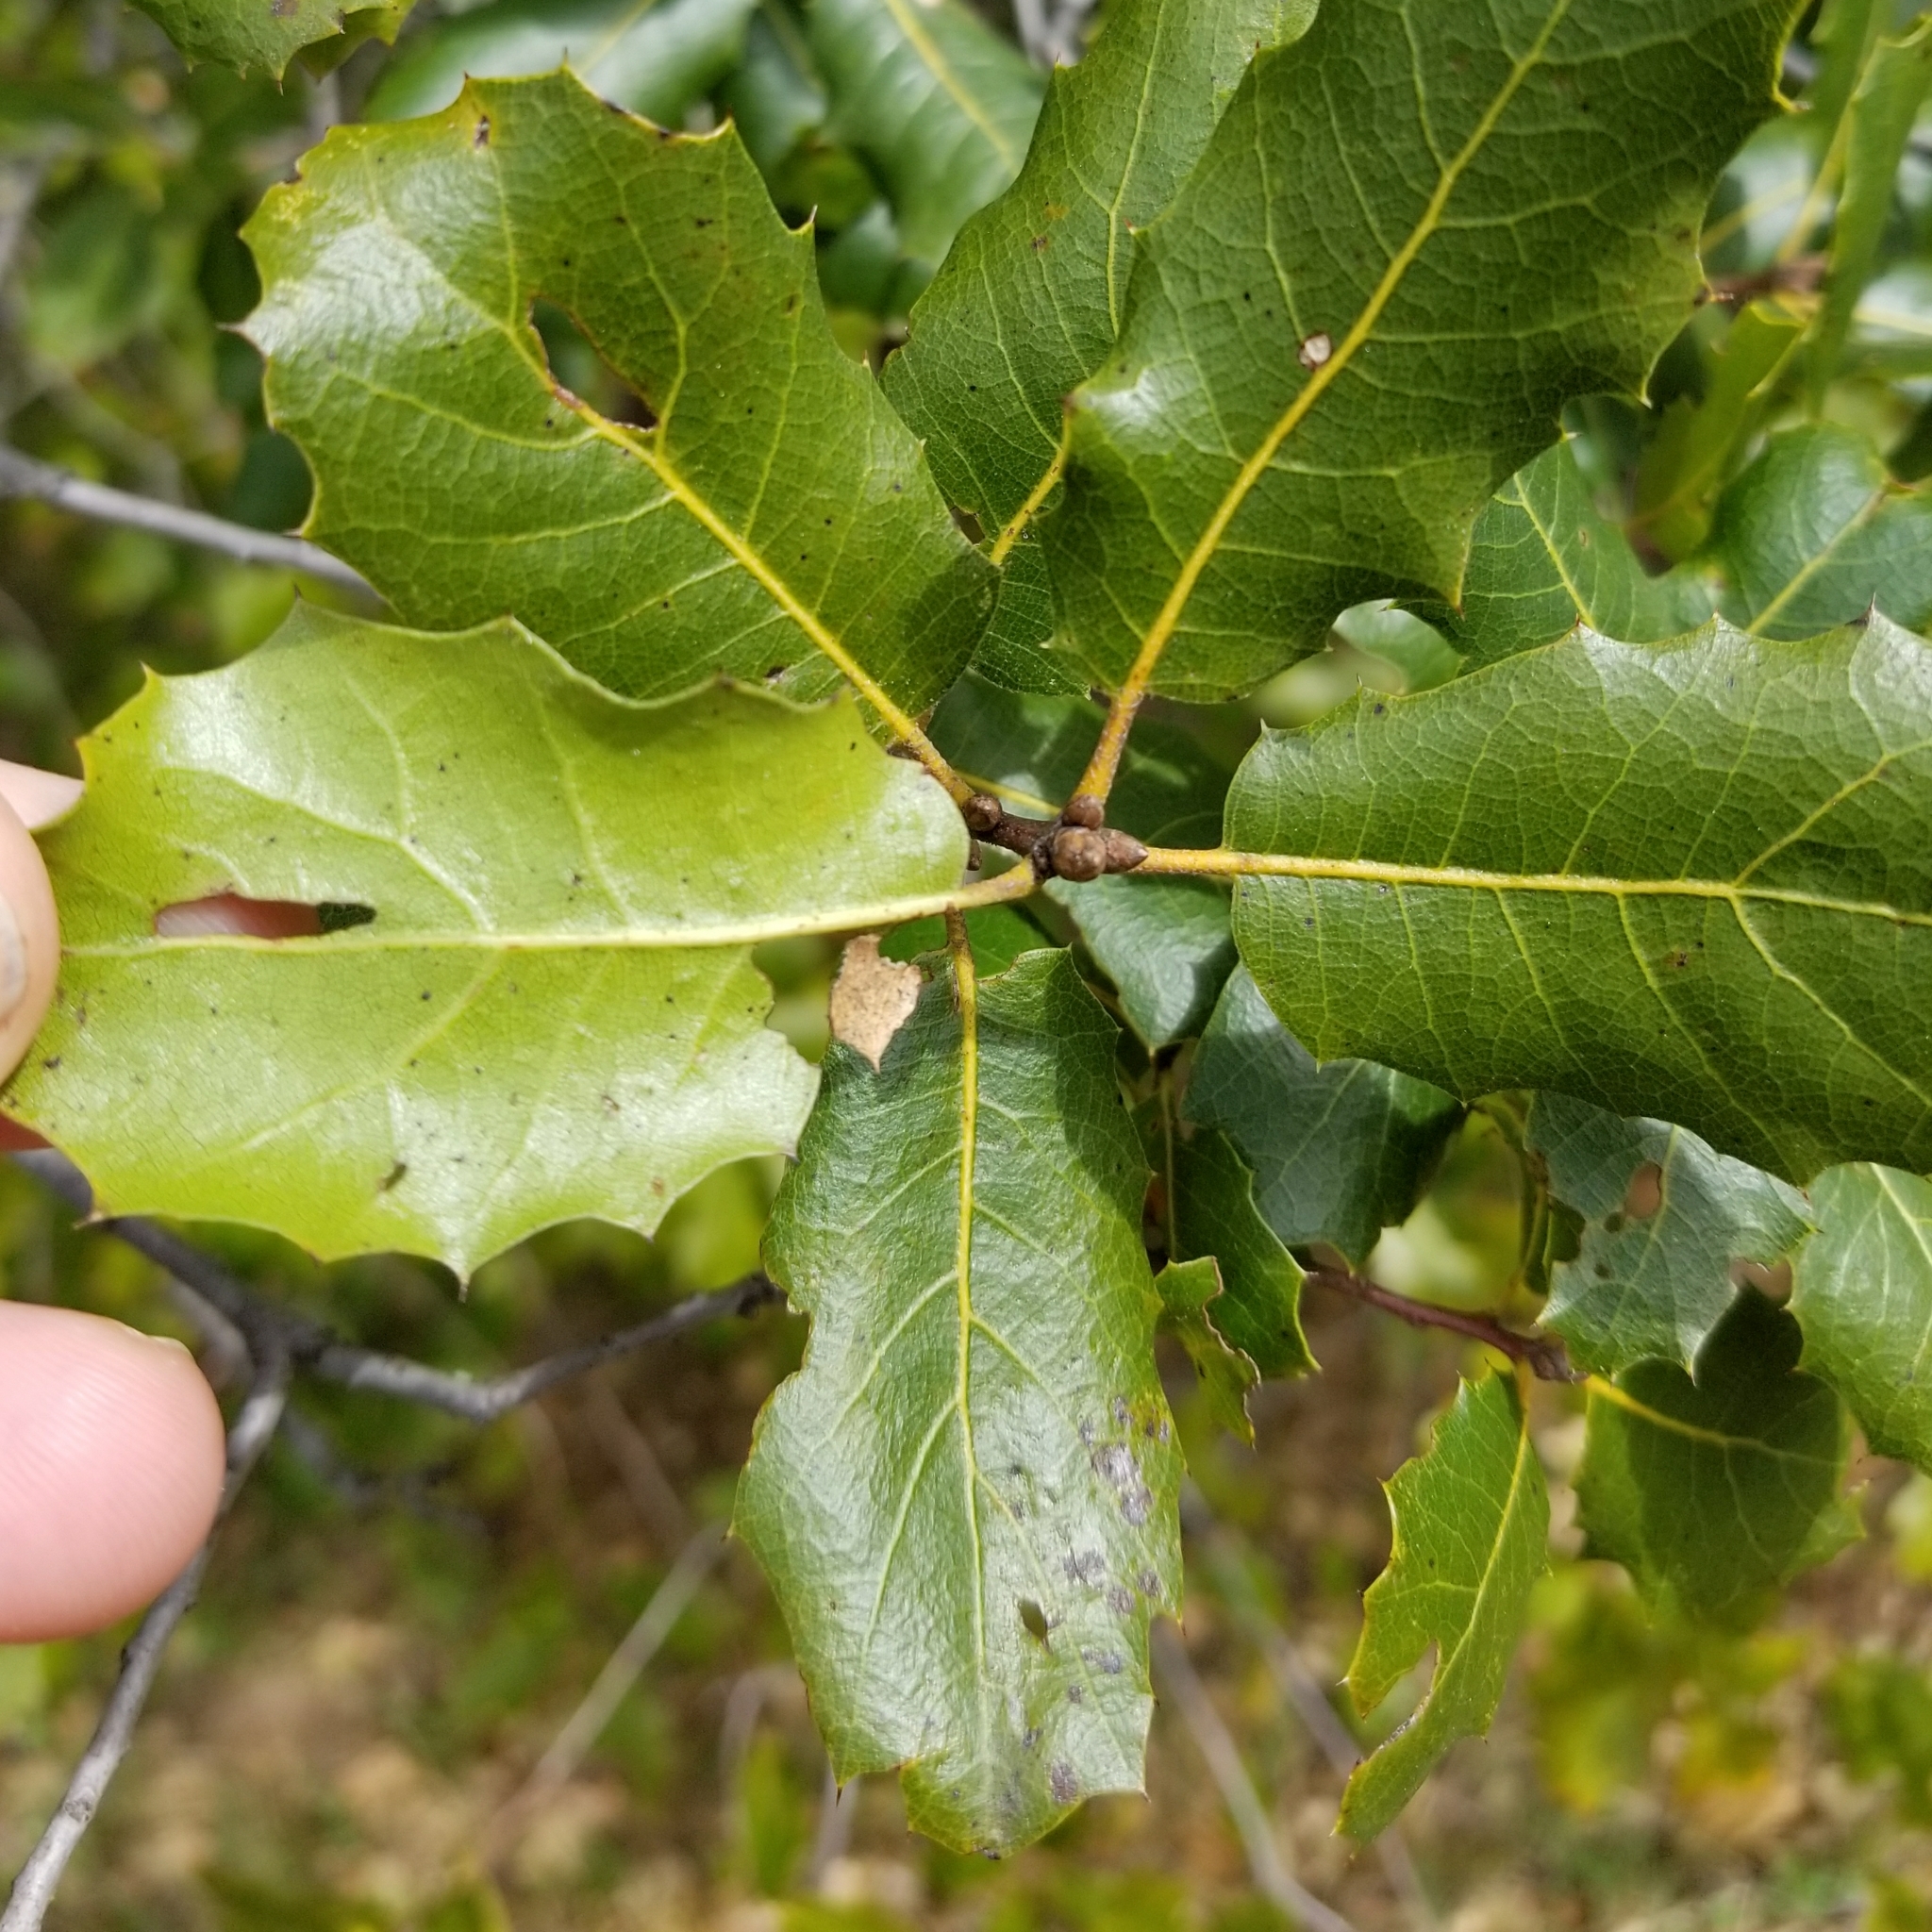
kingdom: Plantae
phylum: Tracheophyta
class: Magnoliopsida
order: Fagales
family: Fagaceae
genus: Quercus
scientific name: Quercus
